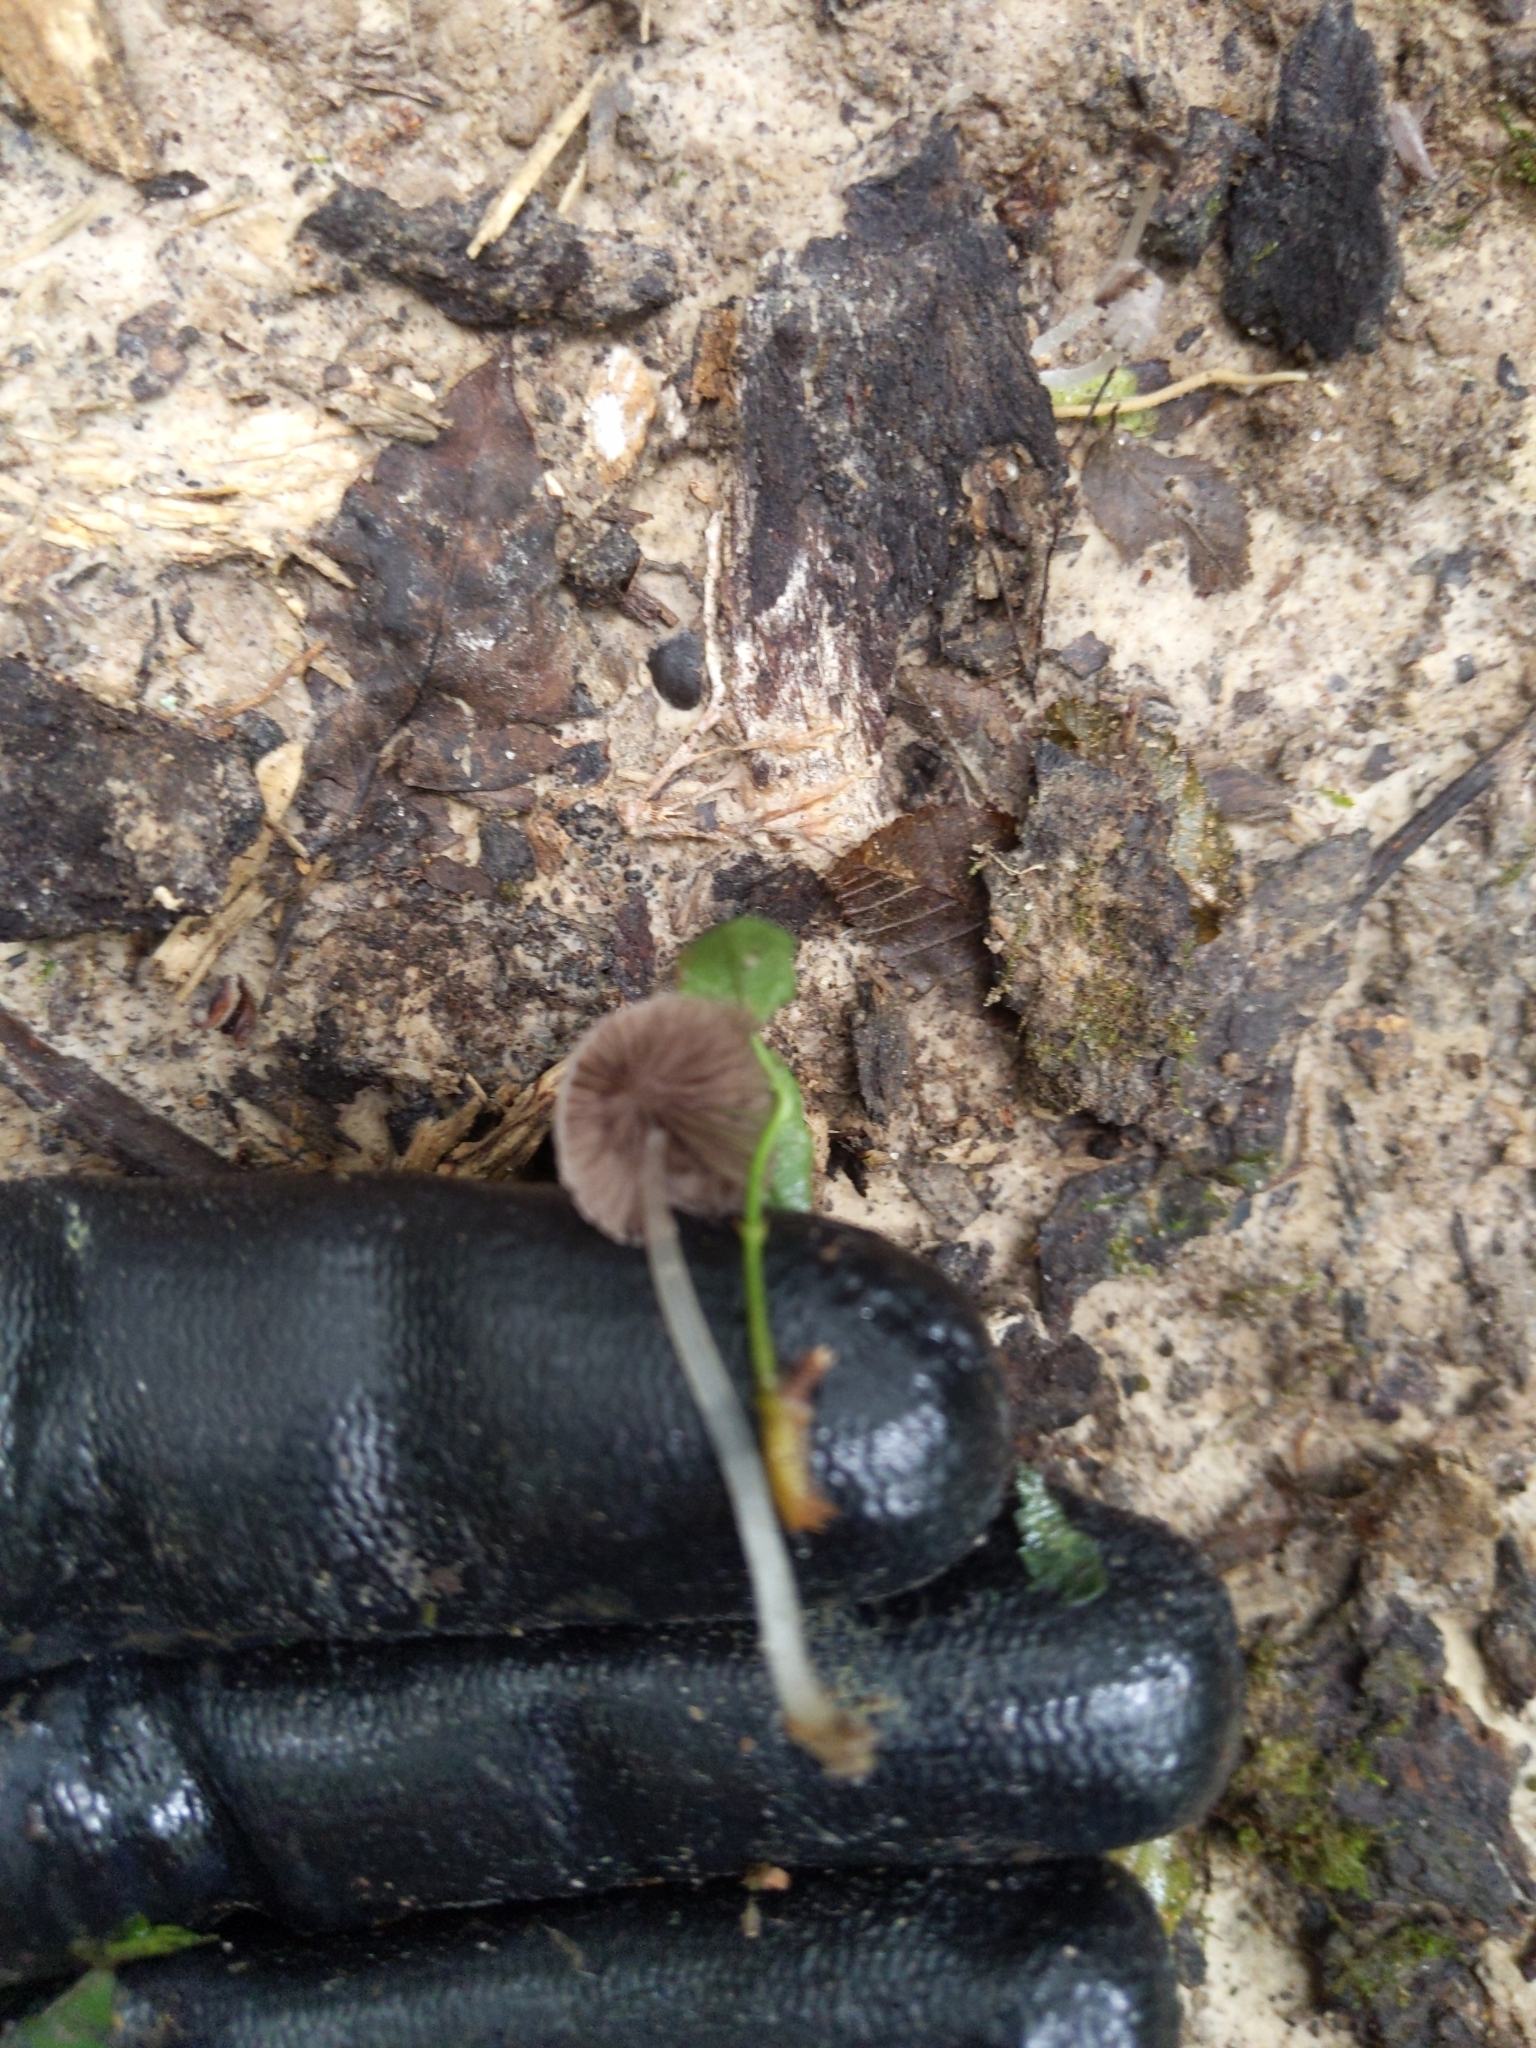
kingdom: Fungi
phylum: Basidiomycota
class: Agaricomycetes
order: Agaricales
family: Psathyrellaceae
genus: Coprinellus
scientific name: Coprinellus disseminatus
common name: Fairies' bonnets
